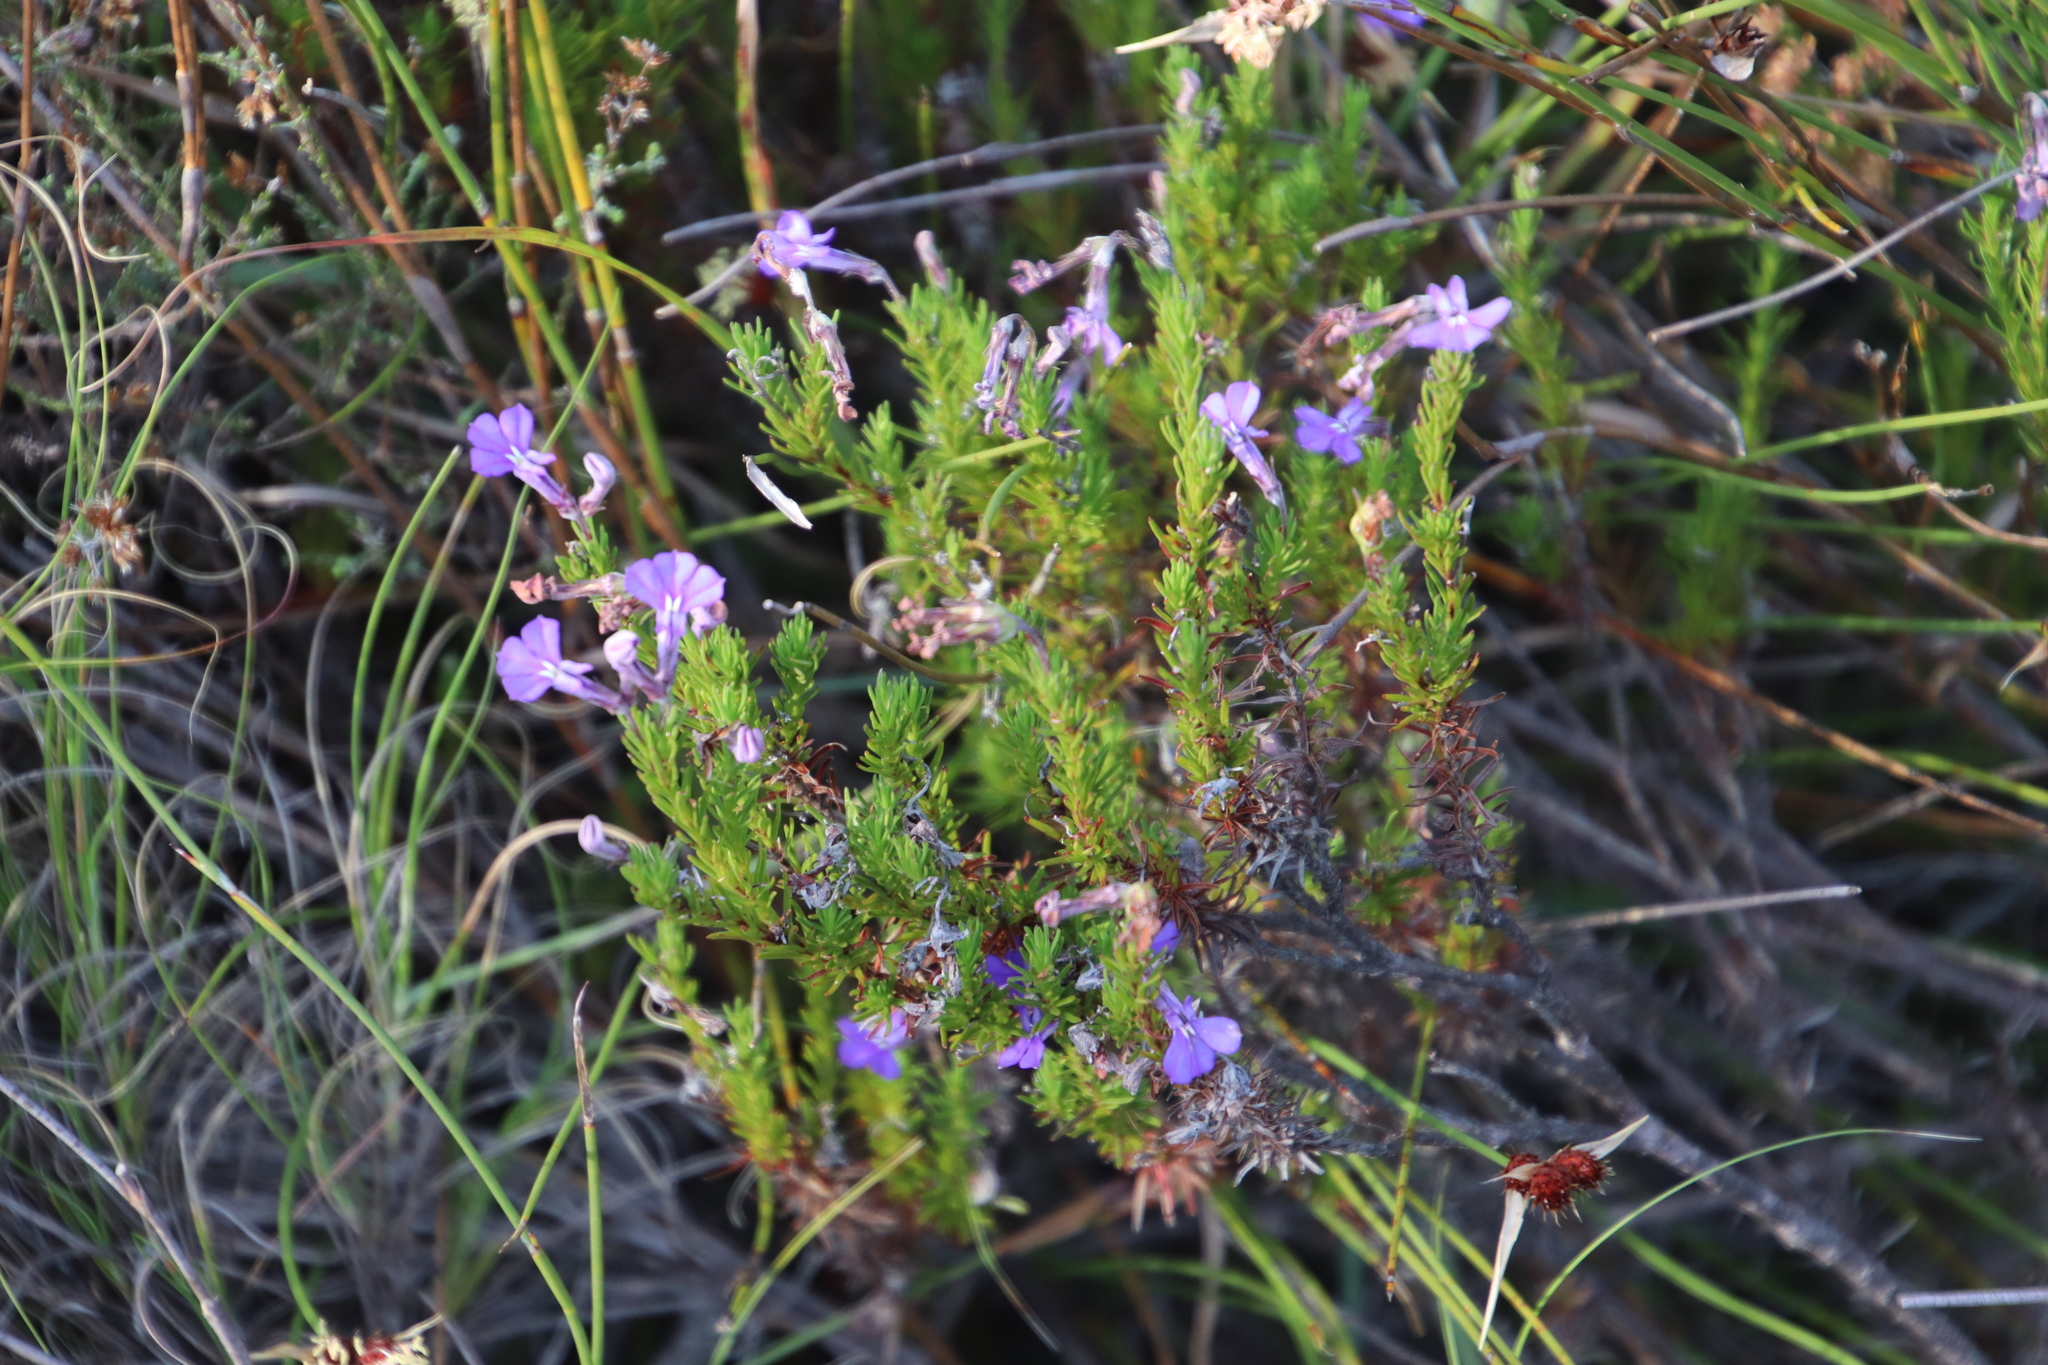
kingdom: Plantae
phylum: Tracheophyta
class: Magnoliopsida
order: Asterales
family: Campanulaceae
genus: Lobelia
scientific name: Lobelia pinifolia
